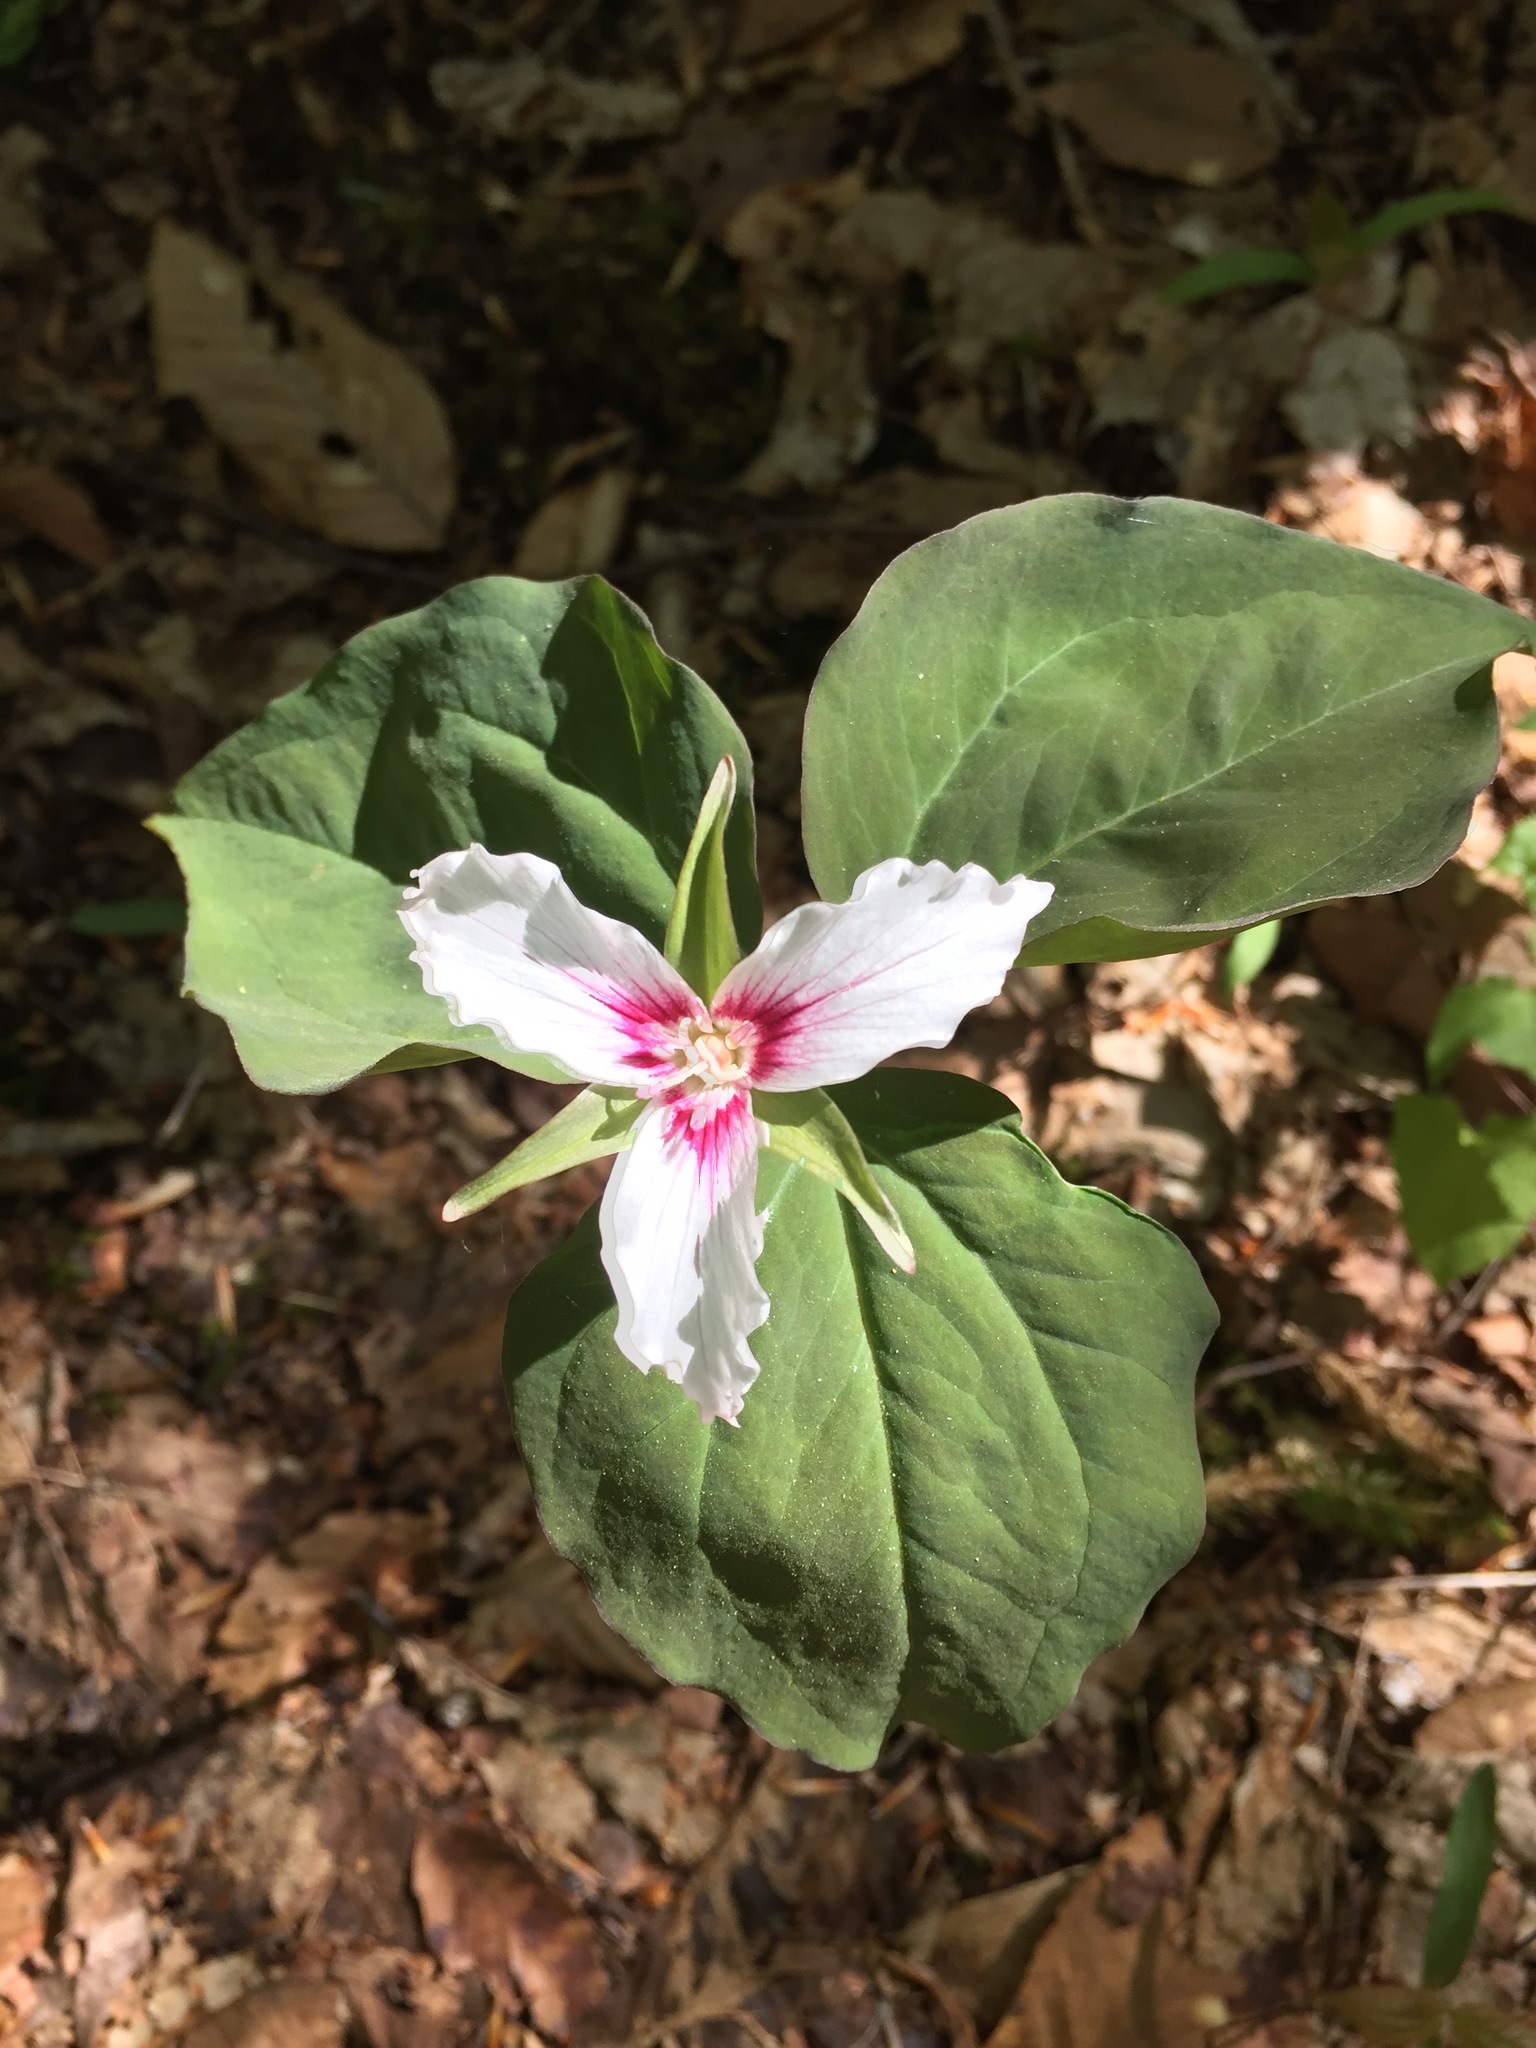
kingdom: Plantae
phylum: Tracheophyta
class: Liliopsida
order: Liliales
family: Melanthiaceae
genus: Trillium
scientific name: Trillium undulatum
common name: Paint trillium
